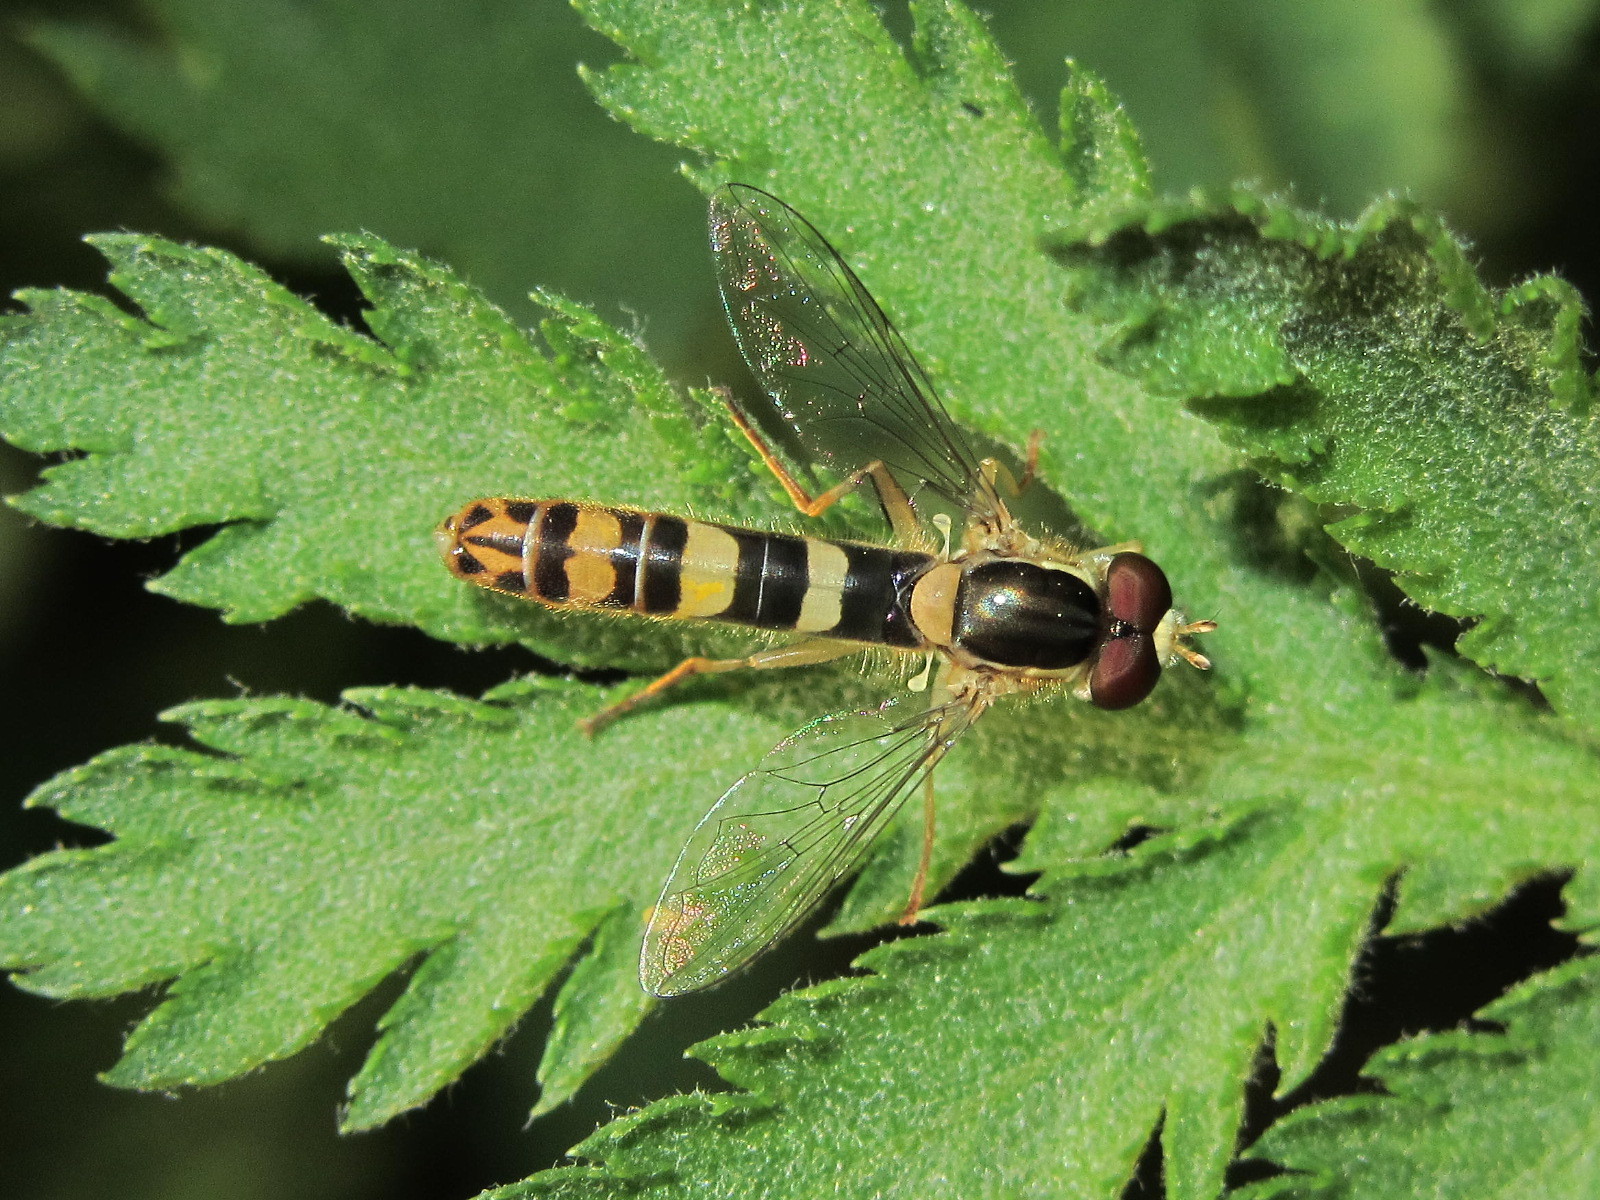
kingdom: Animalia
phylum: Arthropoda
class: Insecta
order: Diptera
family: Syrphidae
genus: Sphaerophoria
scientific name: Sphaerophoria scripta
